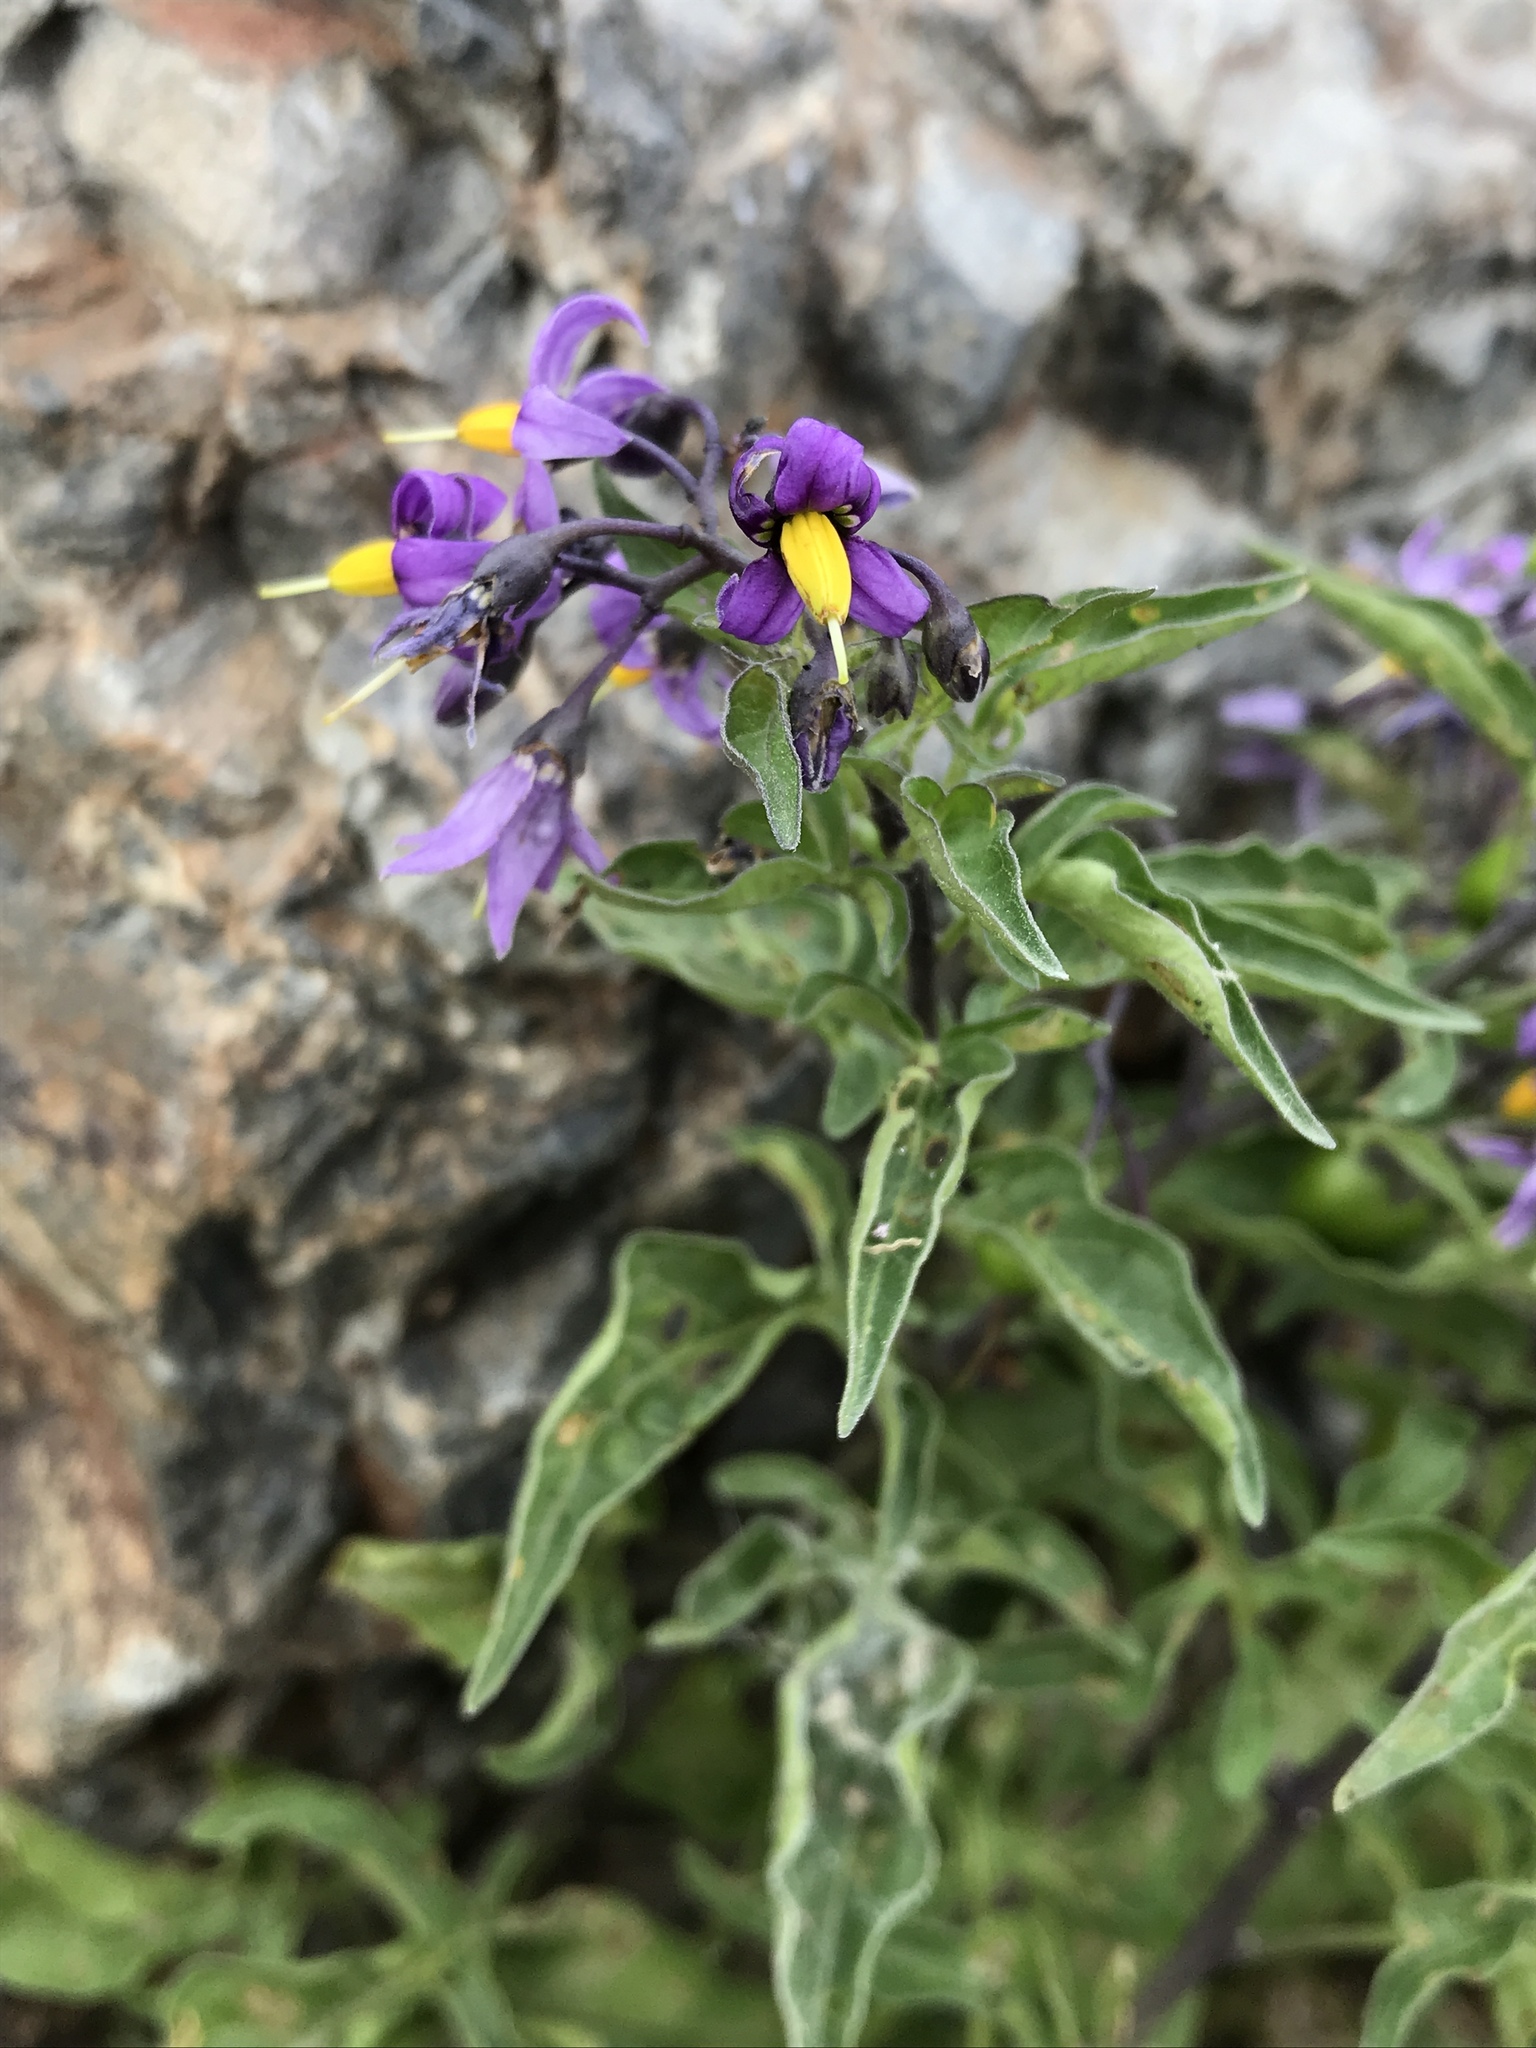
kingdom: Plantae
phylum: Tracheophyta
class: Magnoliopsida
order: Solanales
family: Solanaceae
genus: Solanum
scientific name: Solanum dulcamara
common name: Climbing nightshade
